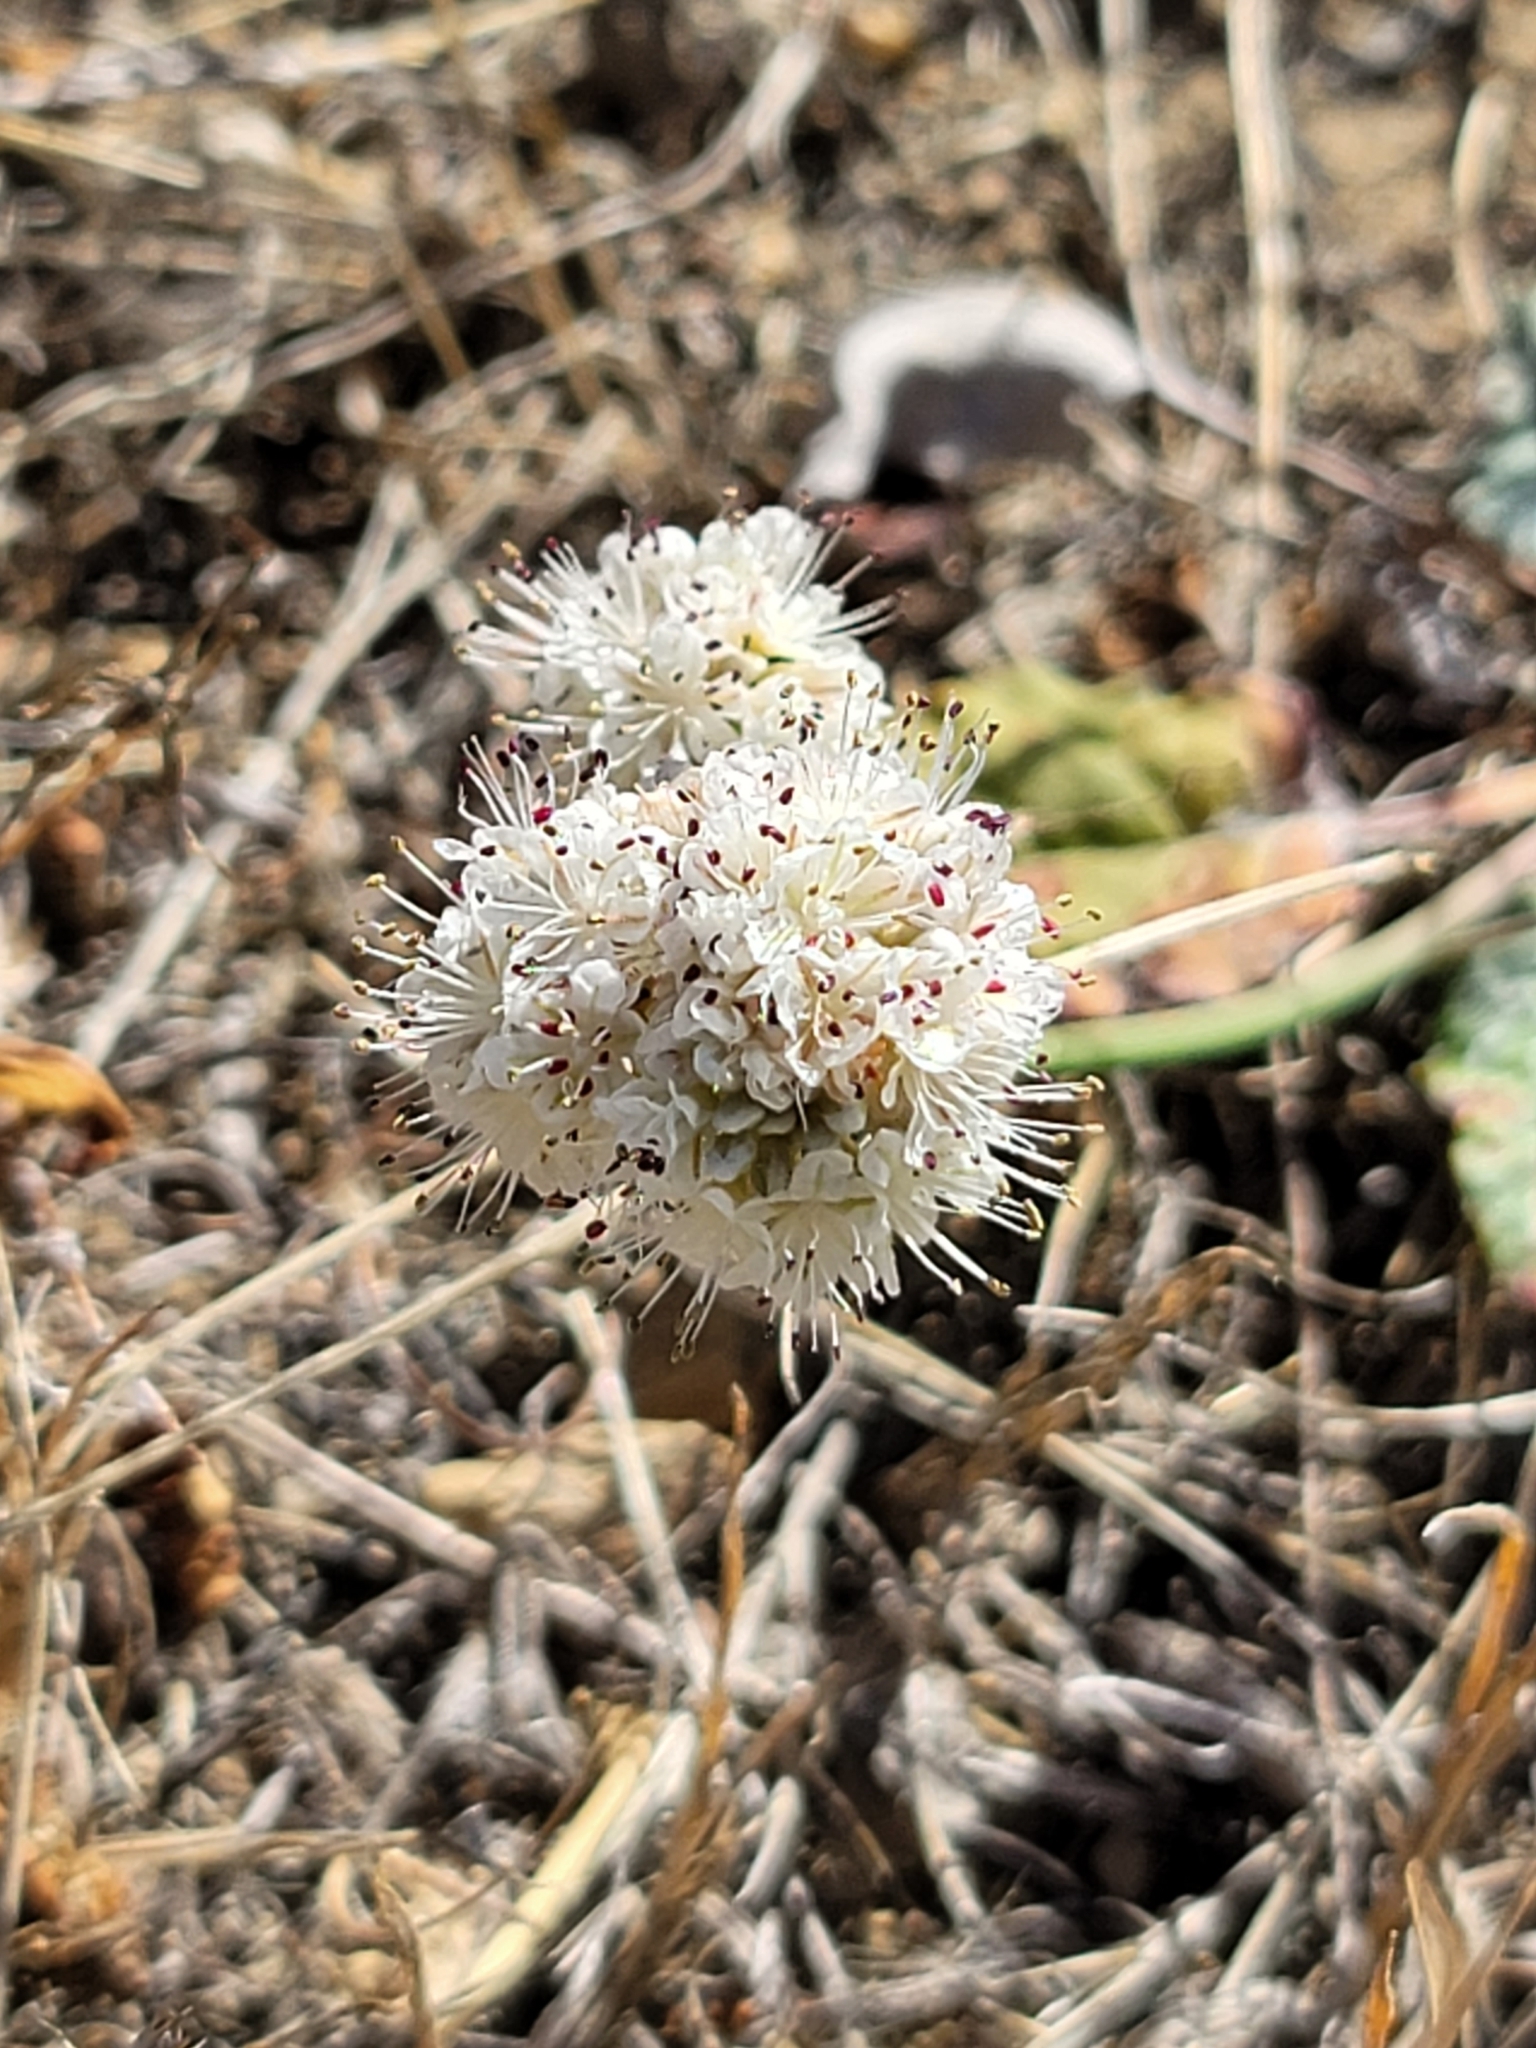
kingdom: Plantae
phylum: Tracheophyta
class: Magnoliopsida
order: Caryophyllales
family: Polygonaceae
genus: Eriogonum
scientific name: Eriogonum latifolium
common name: Seaside wild buckwheat
